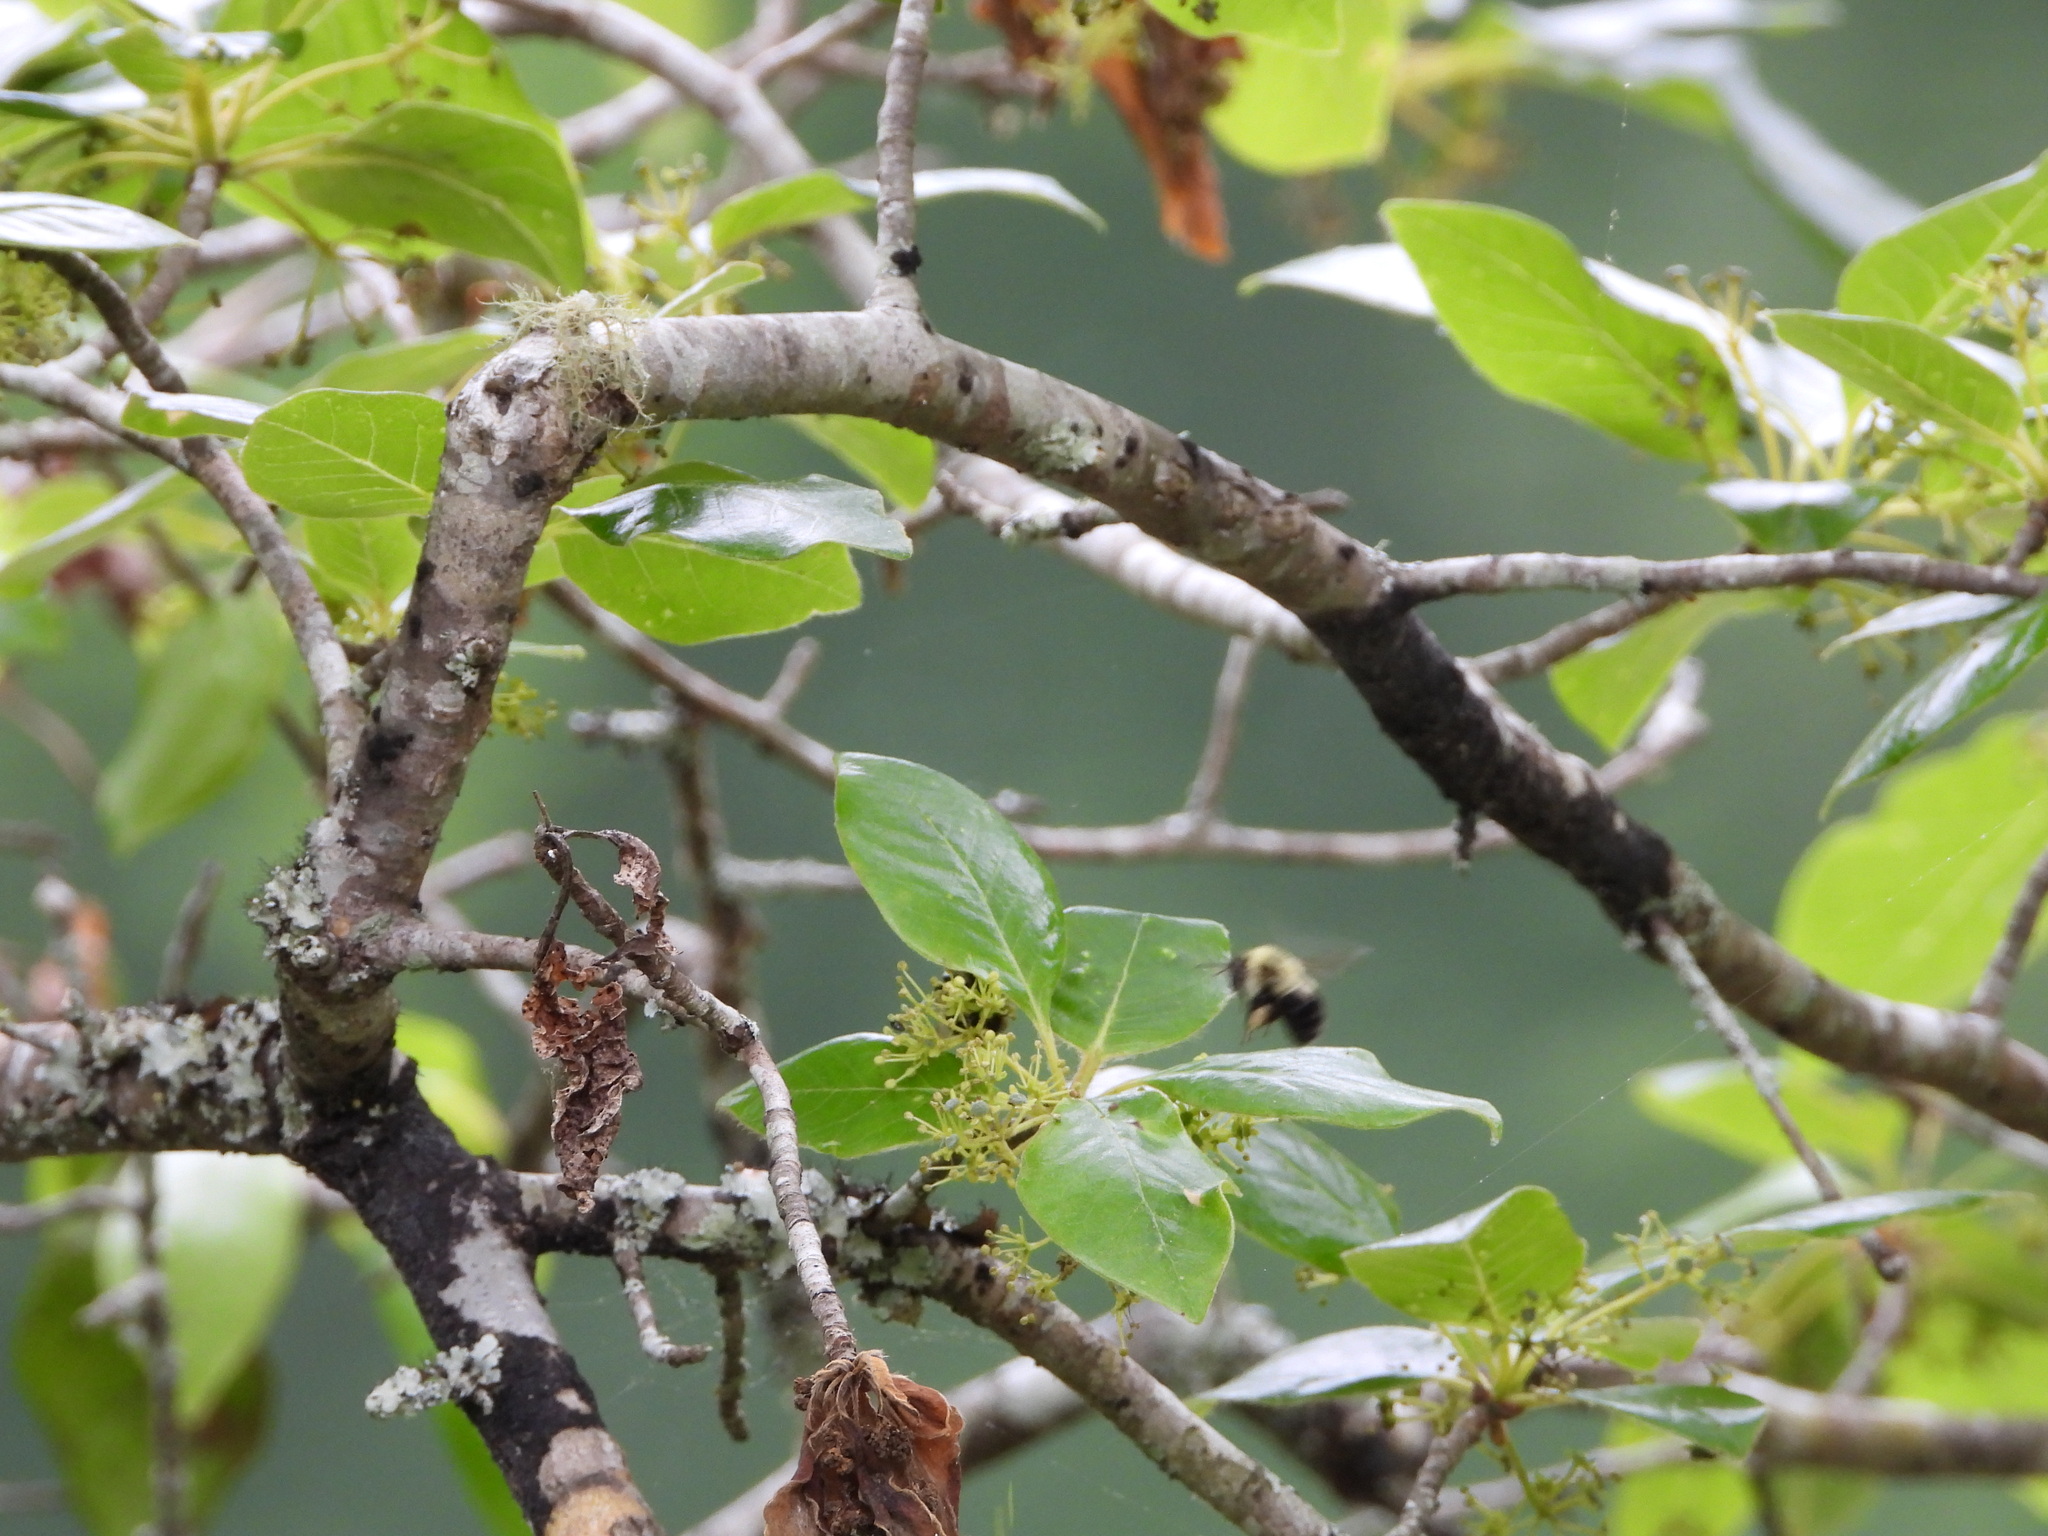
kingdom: Plantae
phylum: Tracheophyta
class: Magnoliopsida
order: Cornales
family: Nyssaceae
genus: Nyssa
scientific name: Nyssa sylvatica
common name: Black tupelo
